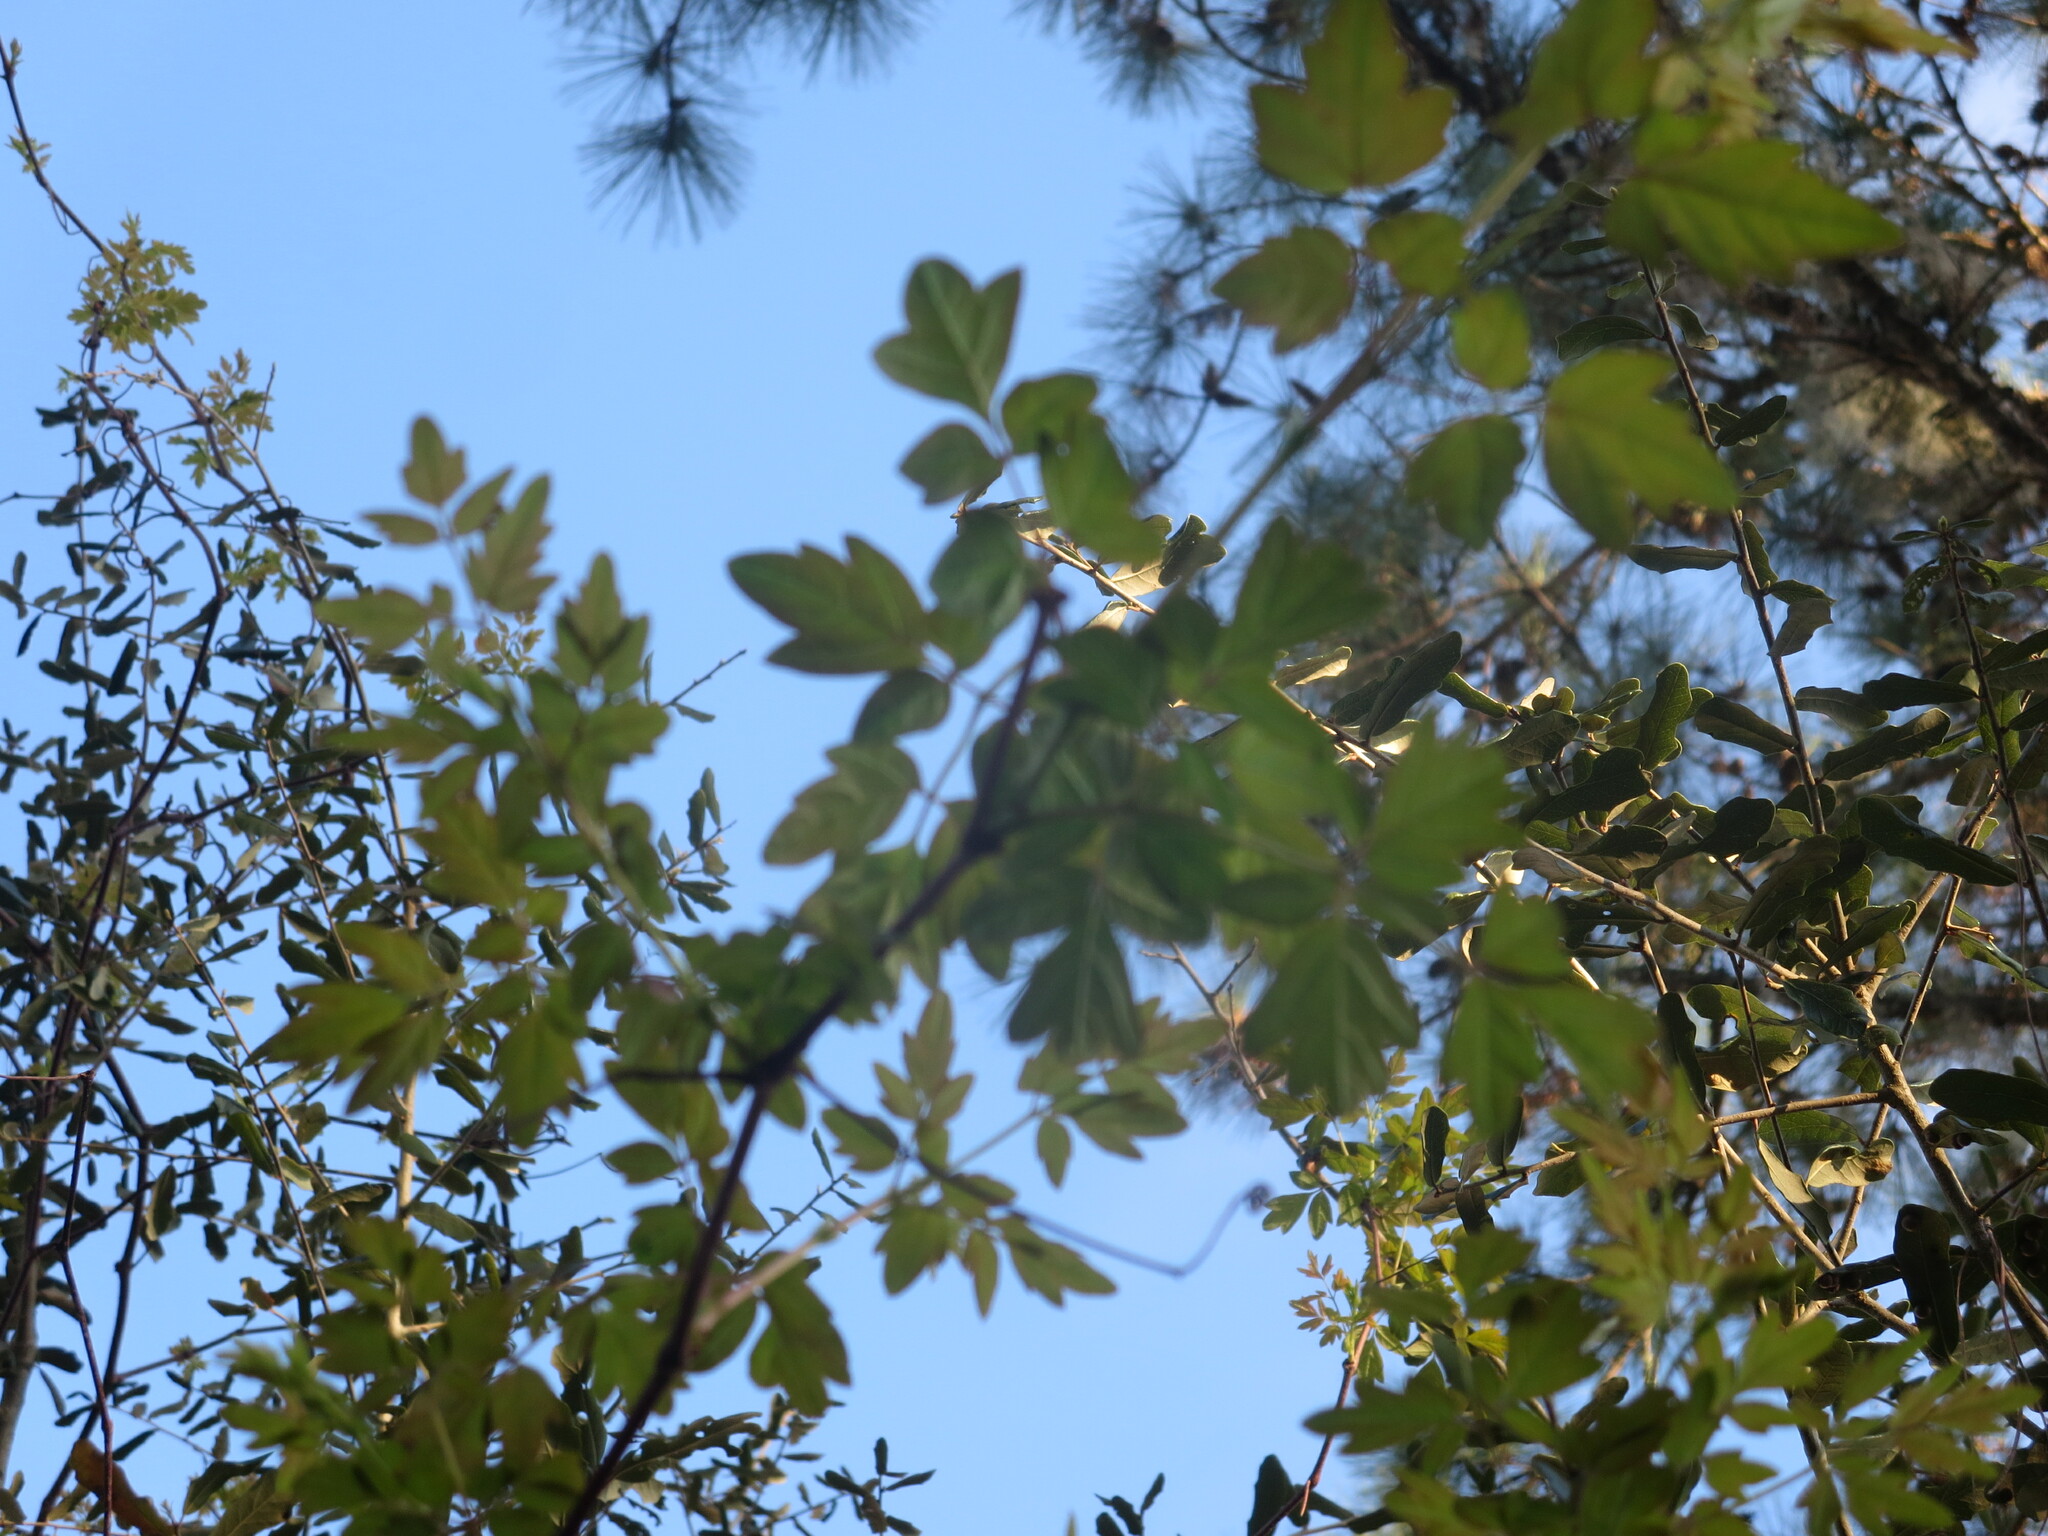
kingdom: Plantae
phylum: Tracheophyta
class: Magnoliopsida
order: Vitales
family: Vitaceae
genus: Nekemias
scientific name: Nekemias arborea
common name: Peppervine
